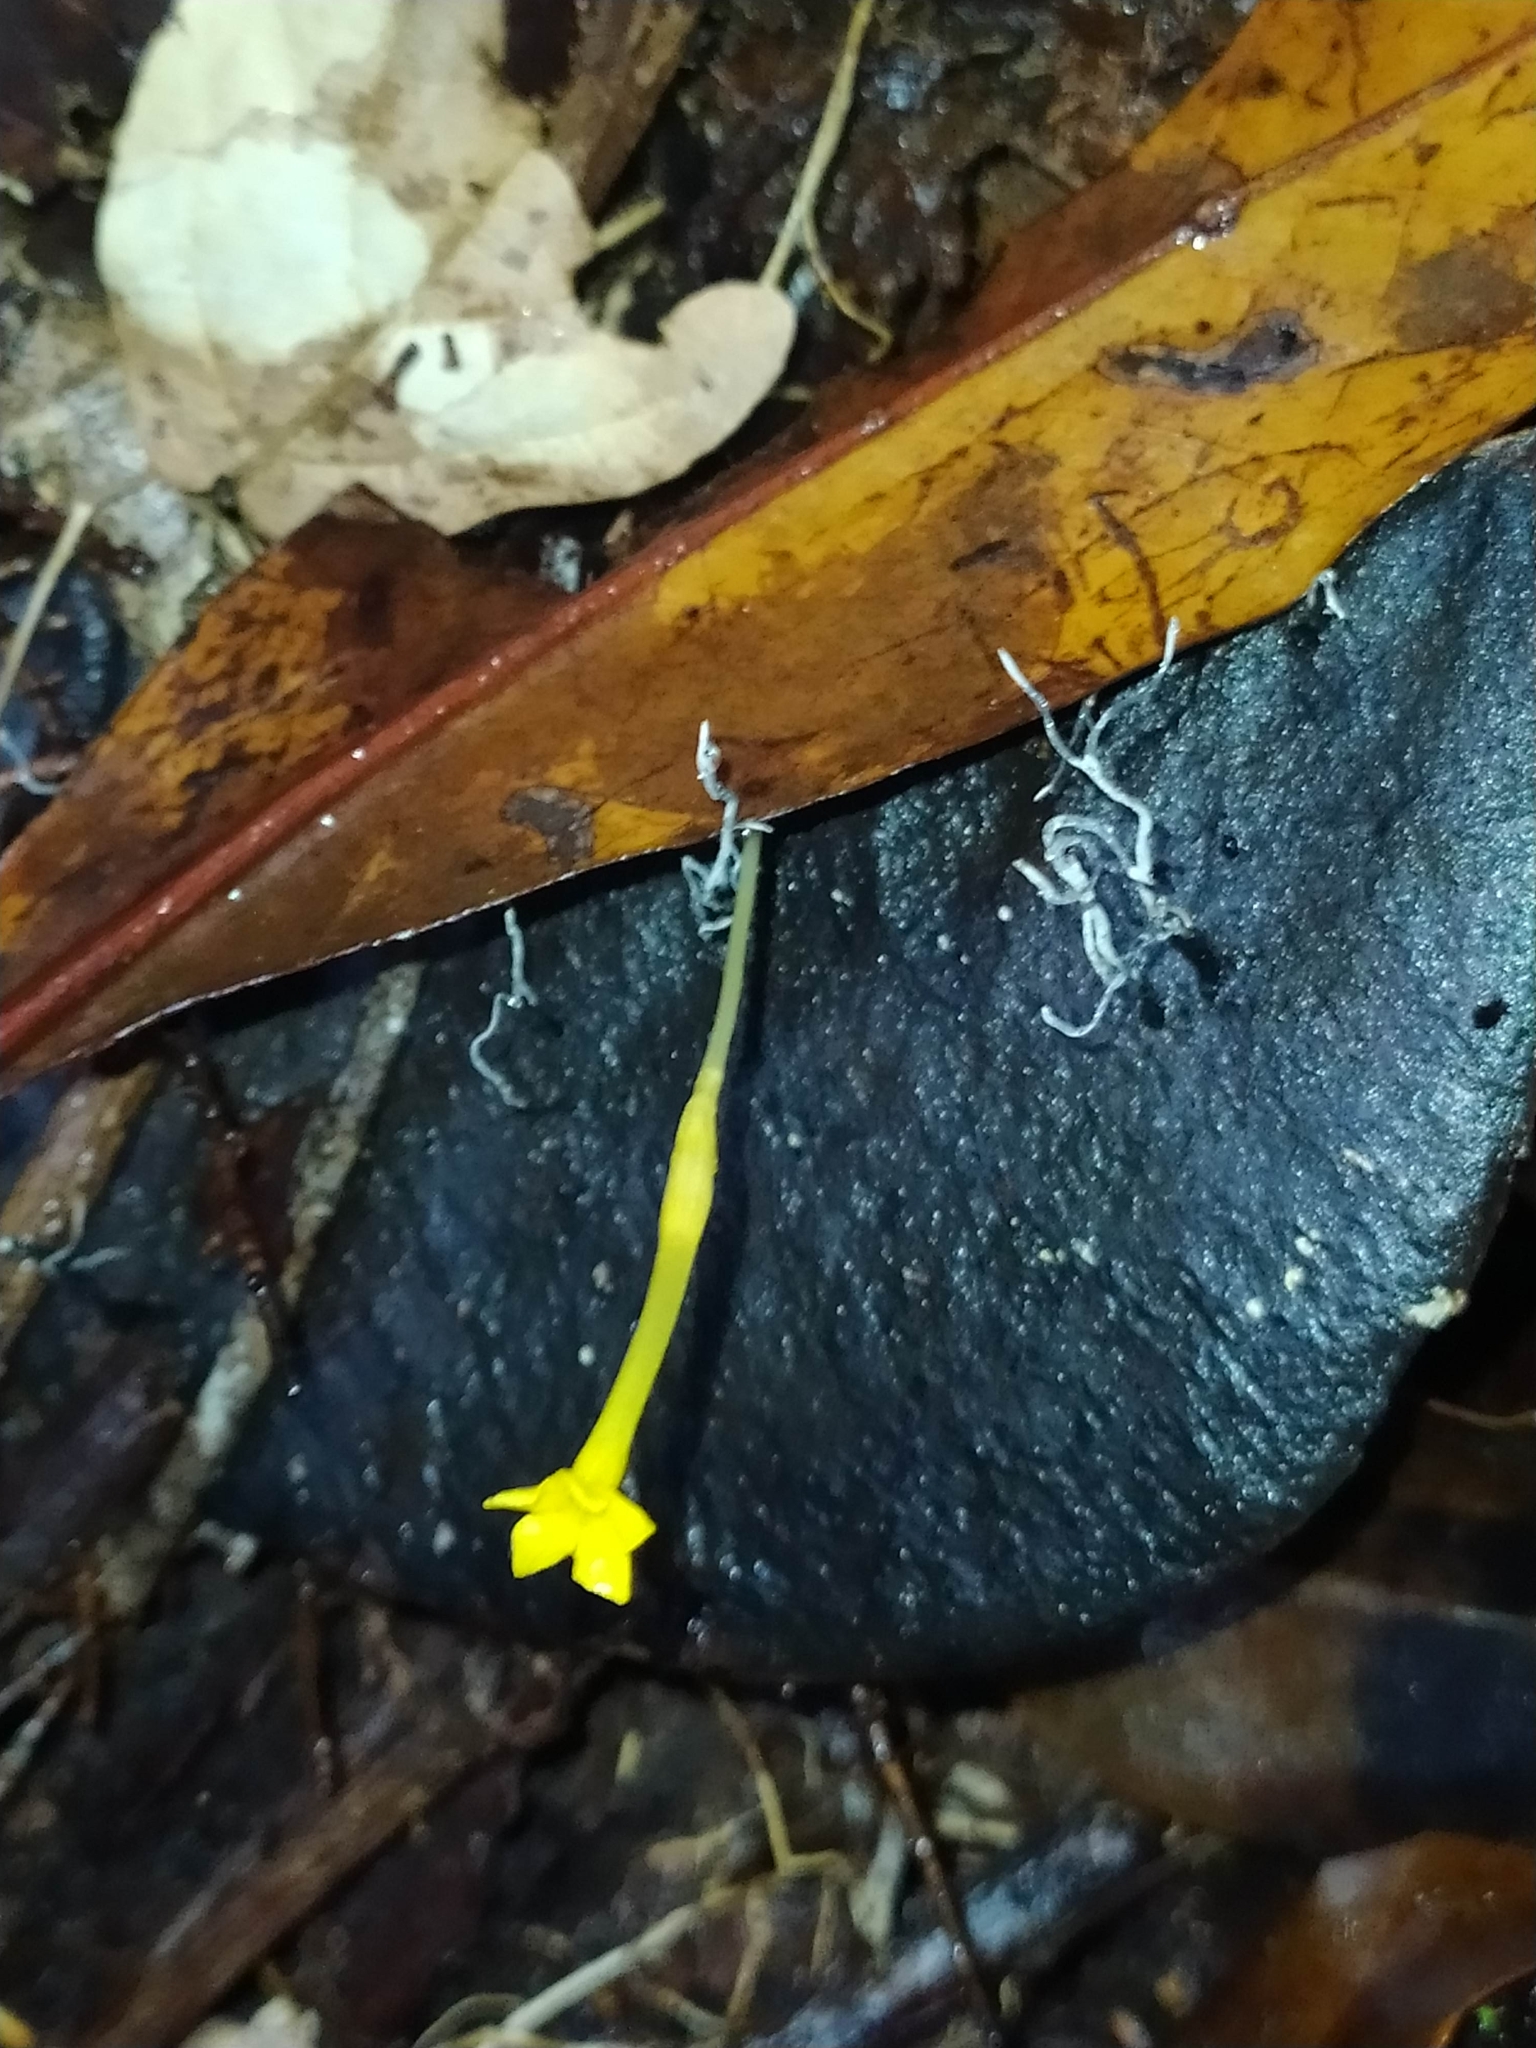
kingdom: Plantae
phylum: Tracheophyta
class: Magnoliopsida
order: Gentianales
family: Gentianaceae
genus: Voyria
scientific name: Voyria aphylla
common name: Leafless ghost plant
